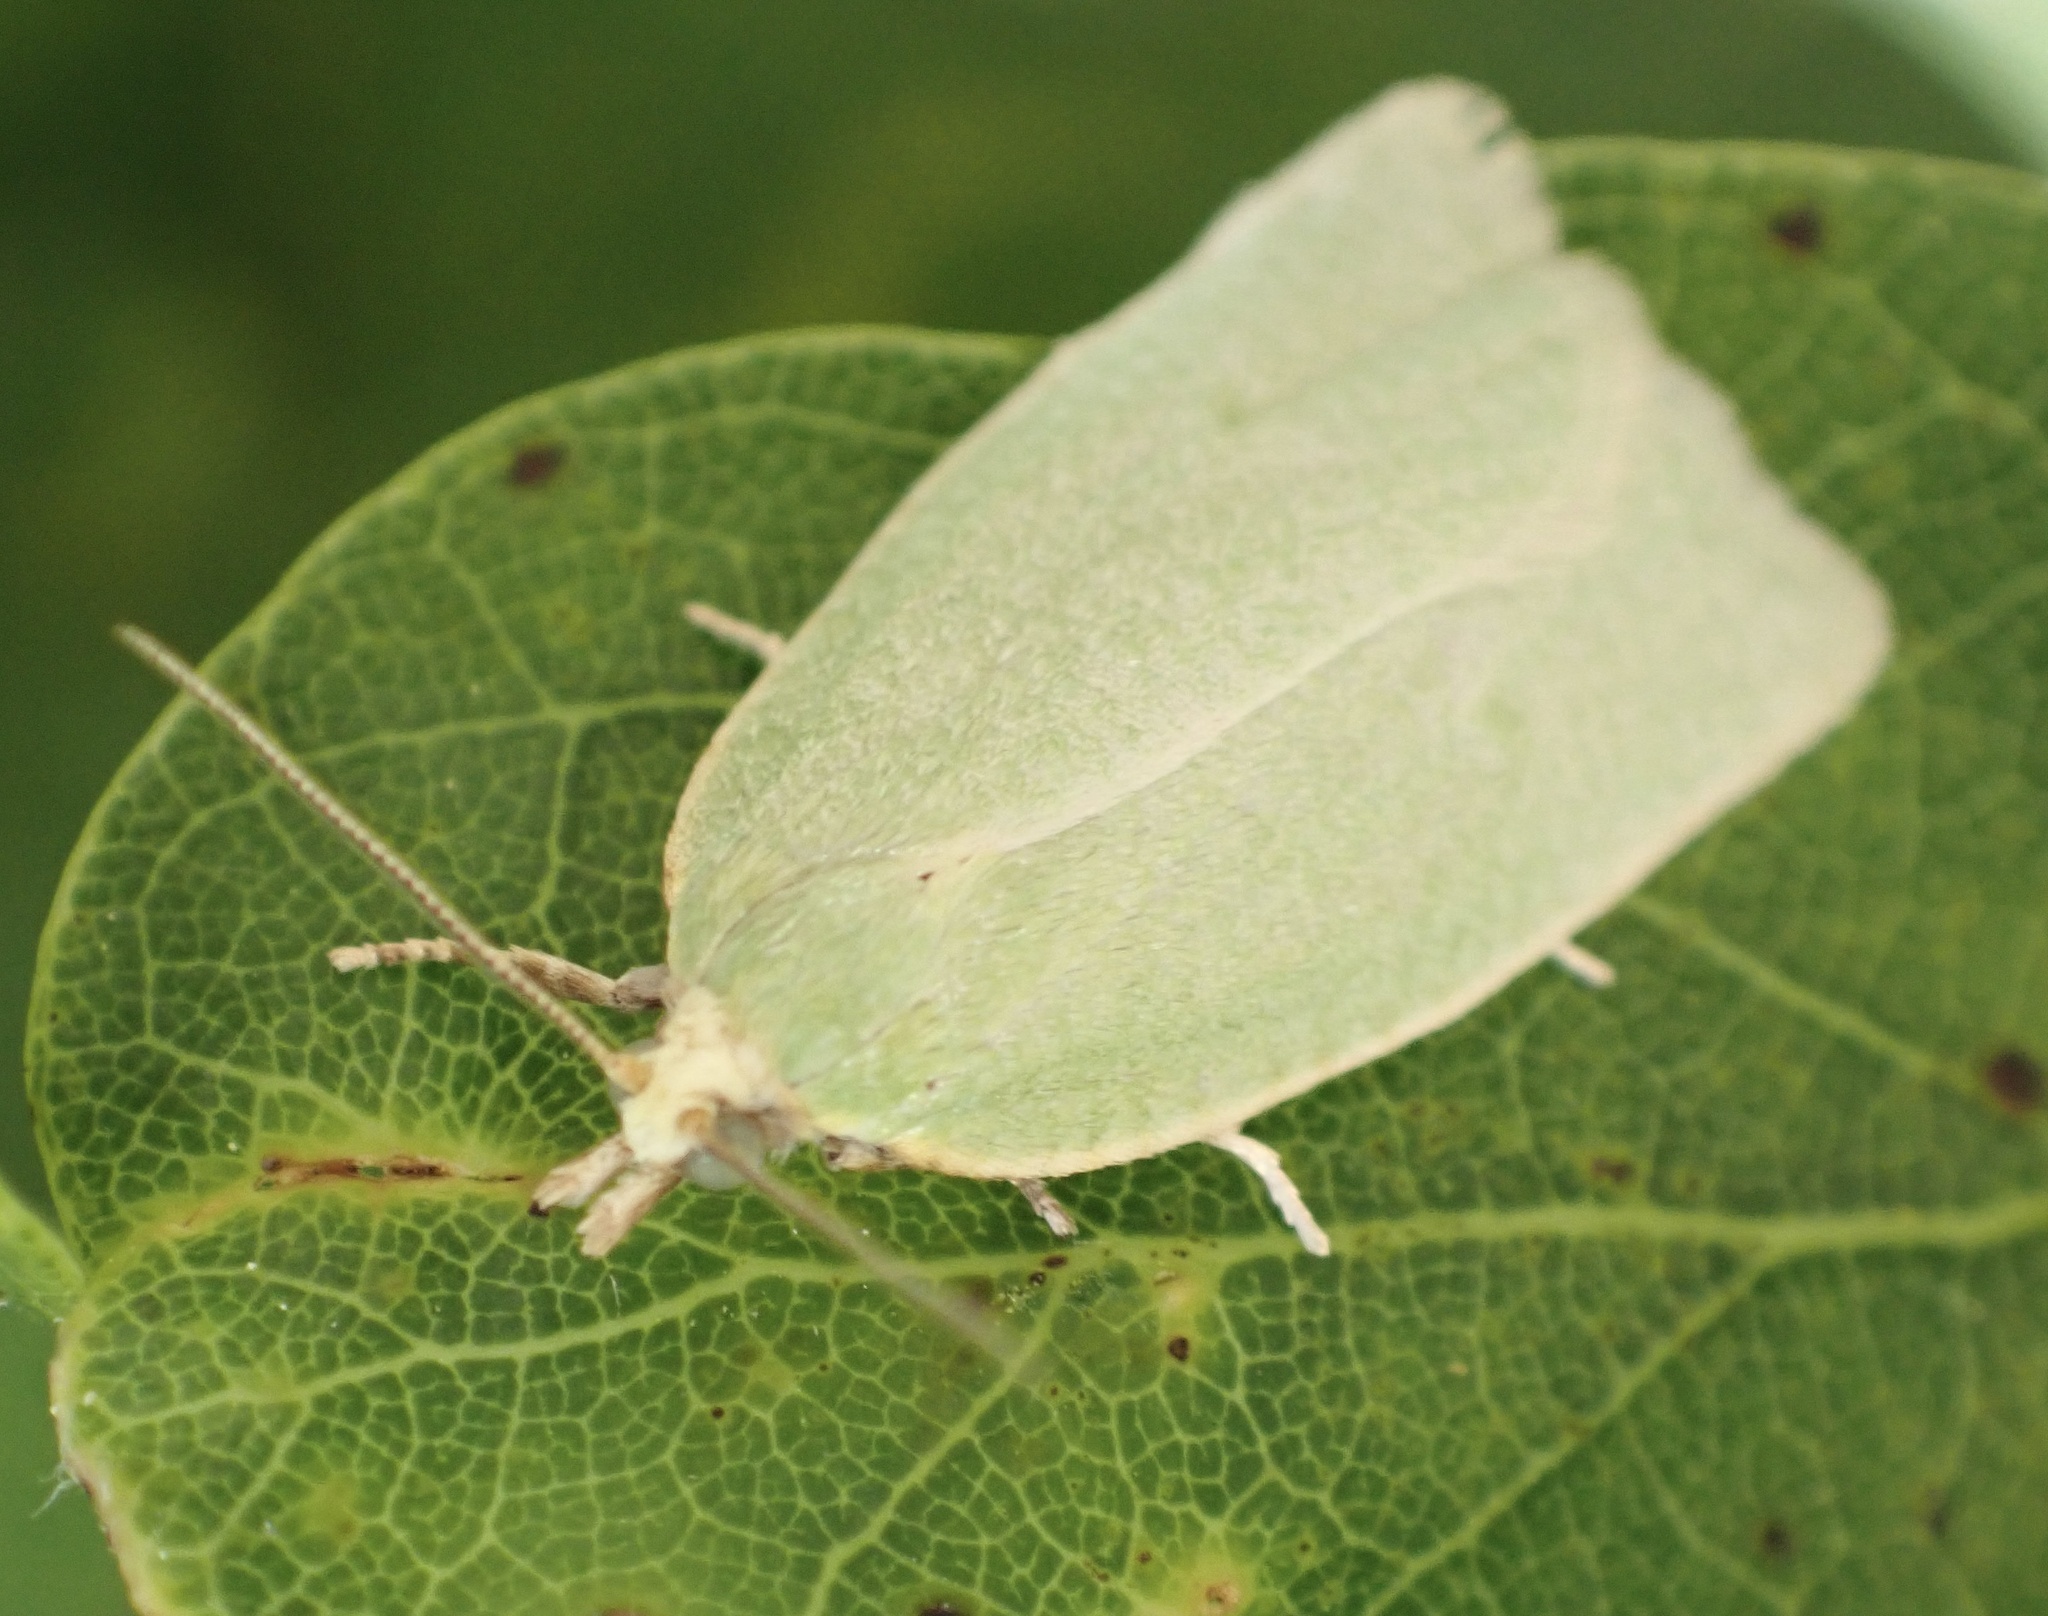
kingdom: Animalia
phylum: Arthropoda
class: Insecta
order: Lepidoptera
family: Tortricidae
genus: Tortrix
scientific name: Tortrix viridana
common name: Green oak tortrix
